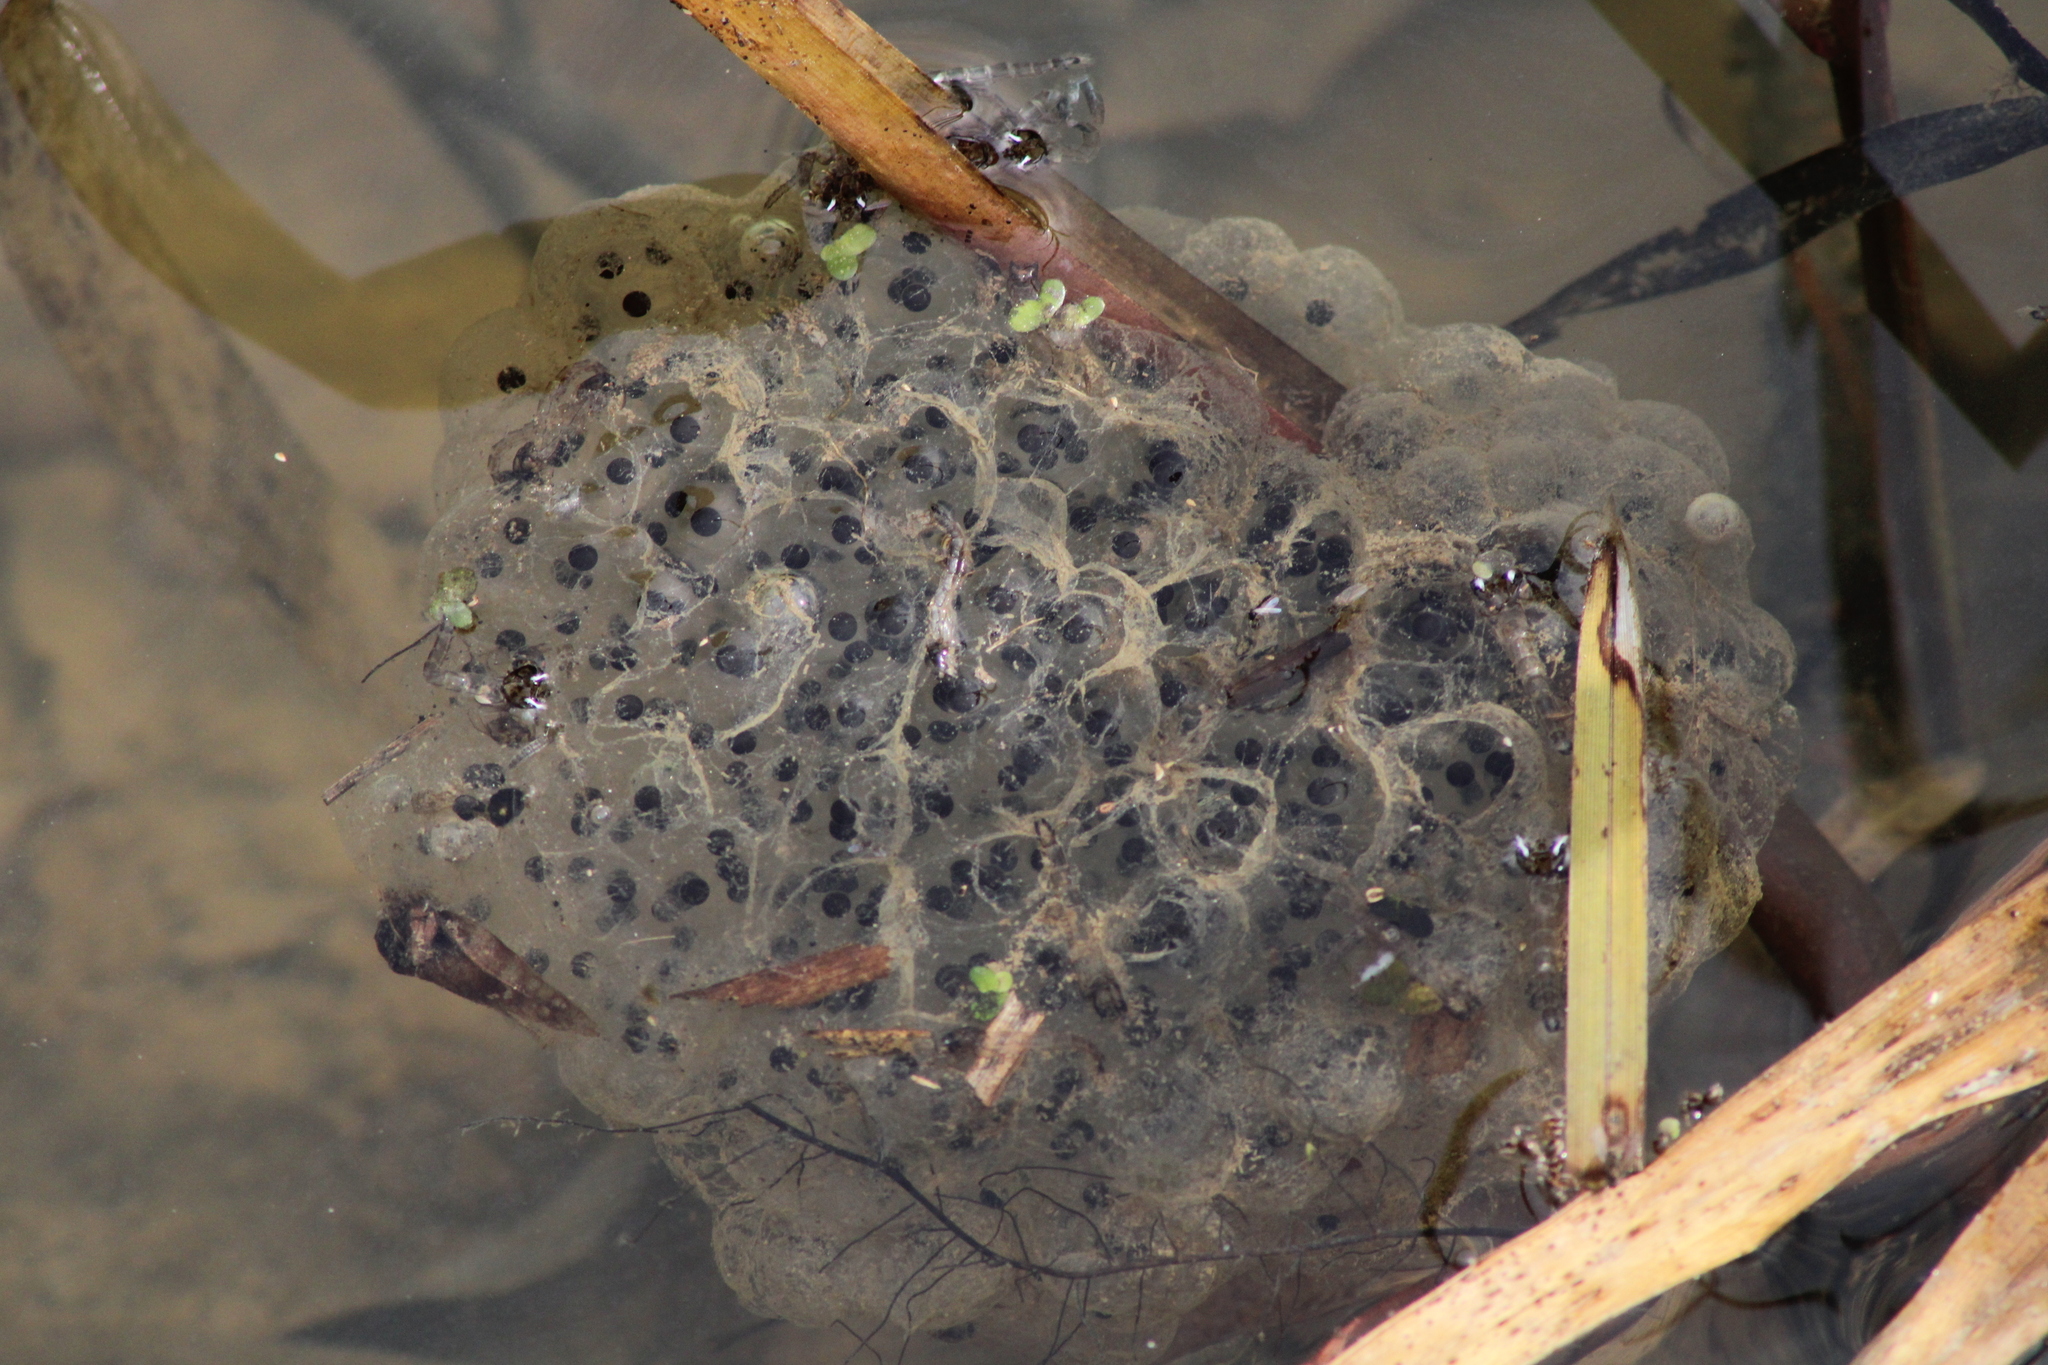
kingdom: Animalia
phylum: Chordata
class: Amphibia
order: Anura
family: Ranidae
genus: Rana
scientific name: Rana dalmatina
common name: Agile frog
